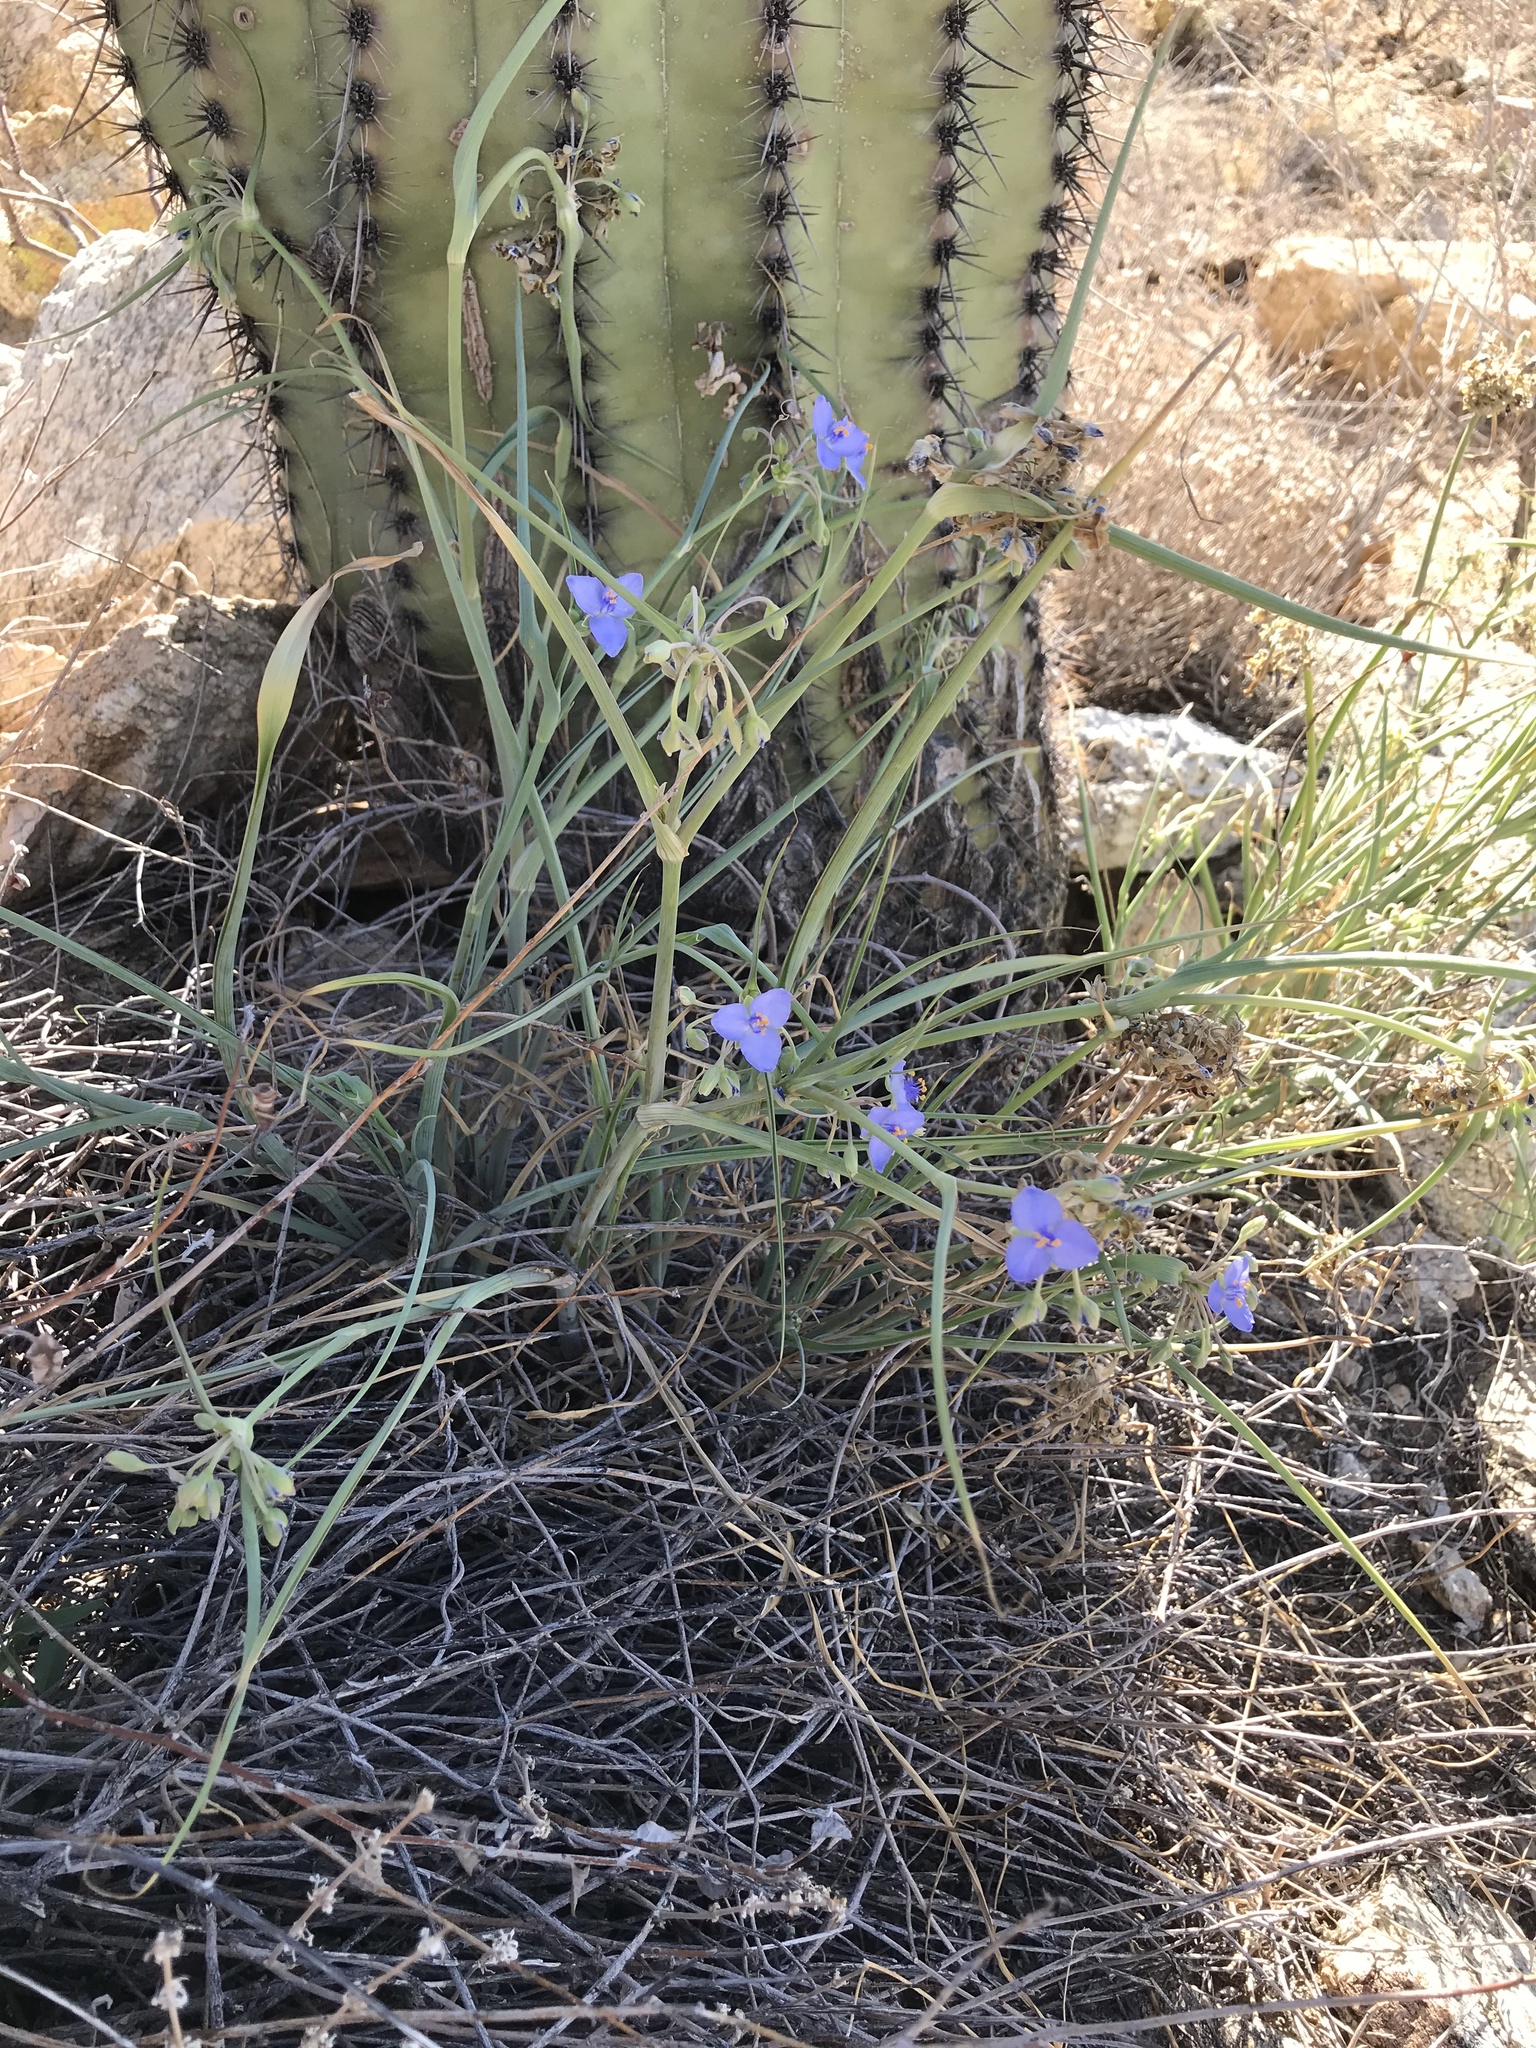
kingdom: Plantae
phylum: Tracheophyta
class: Liliopsida
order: Commelinales
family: Commelinaceae
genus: Tradescantia
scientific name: Tradescantia occidentalis
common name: Prairie spiderwort
